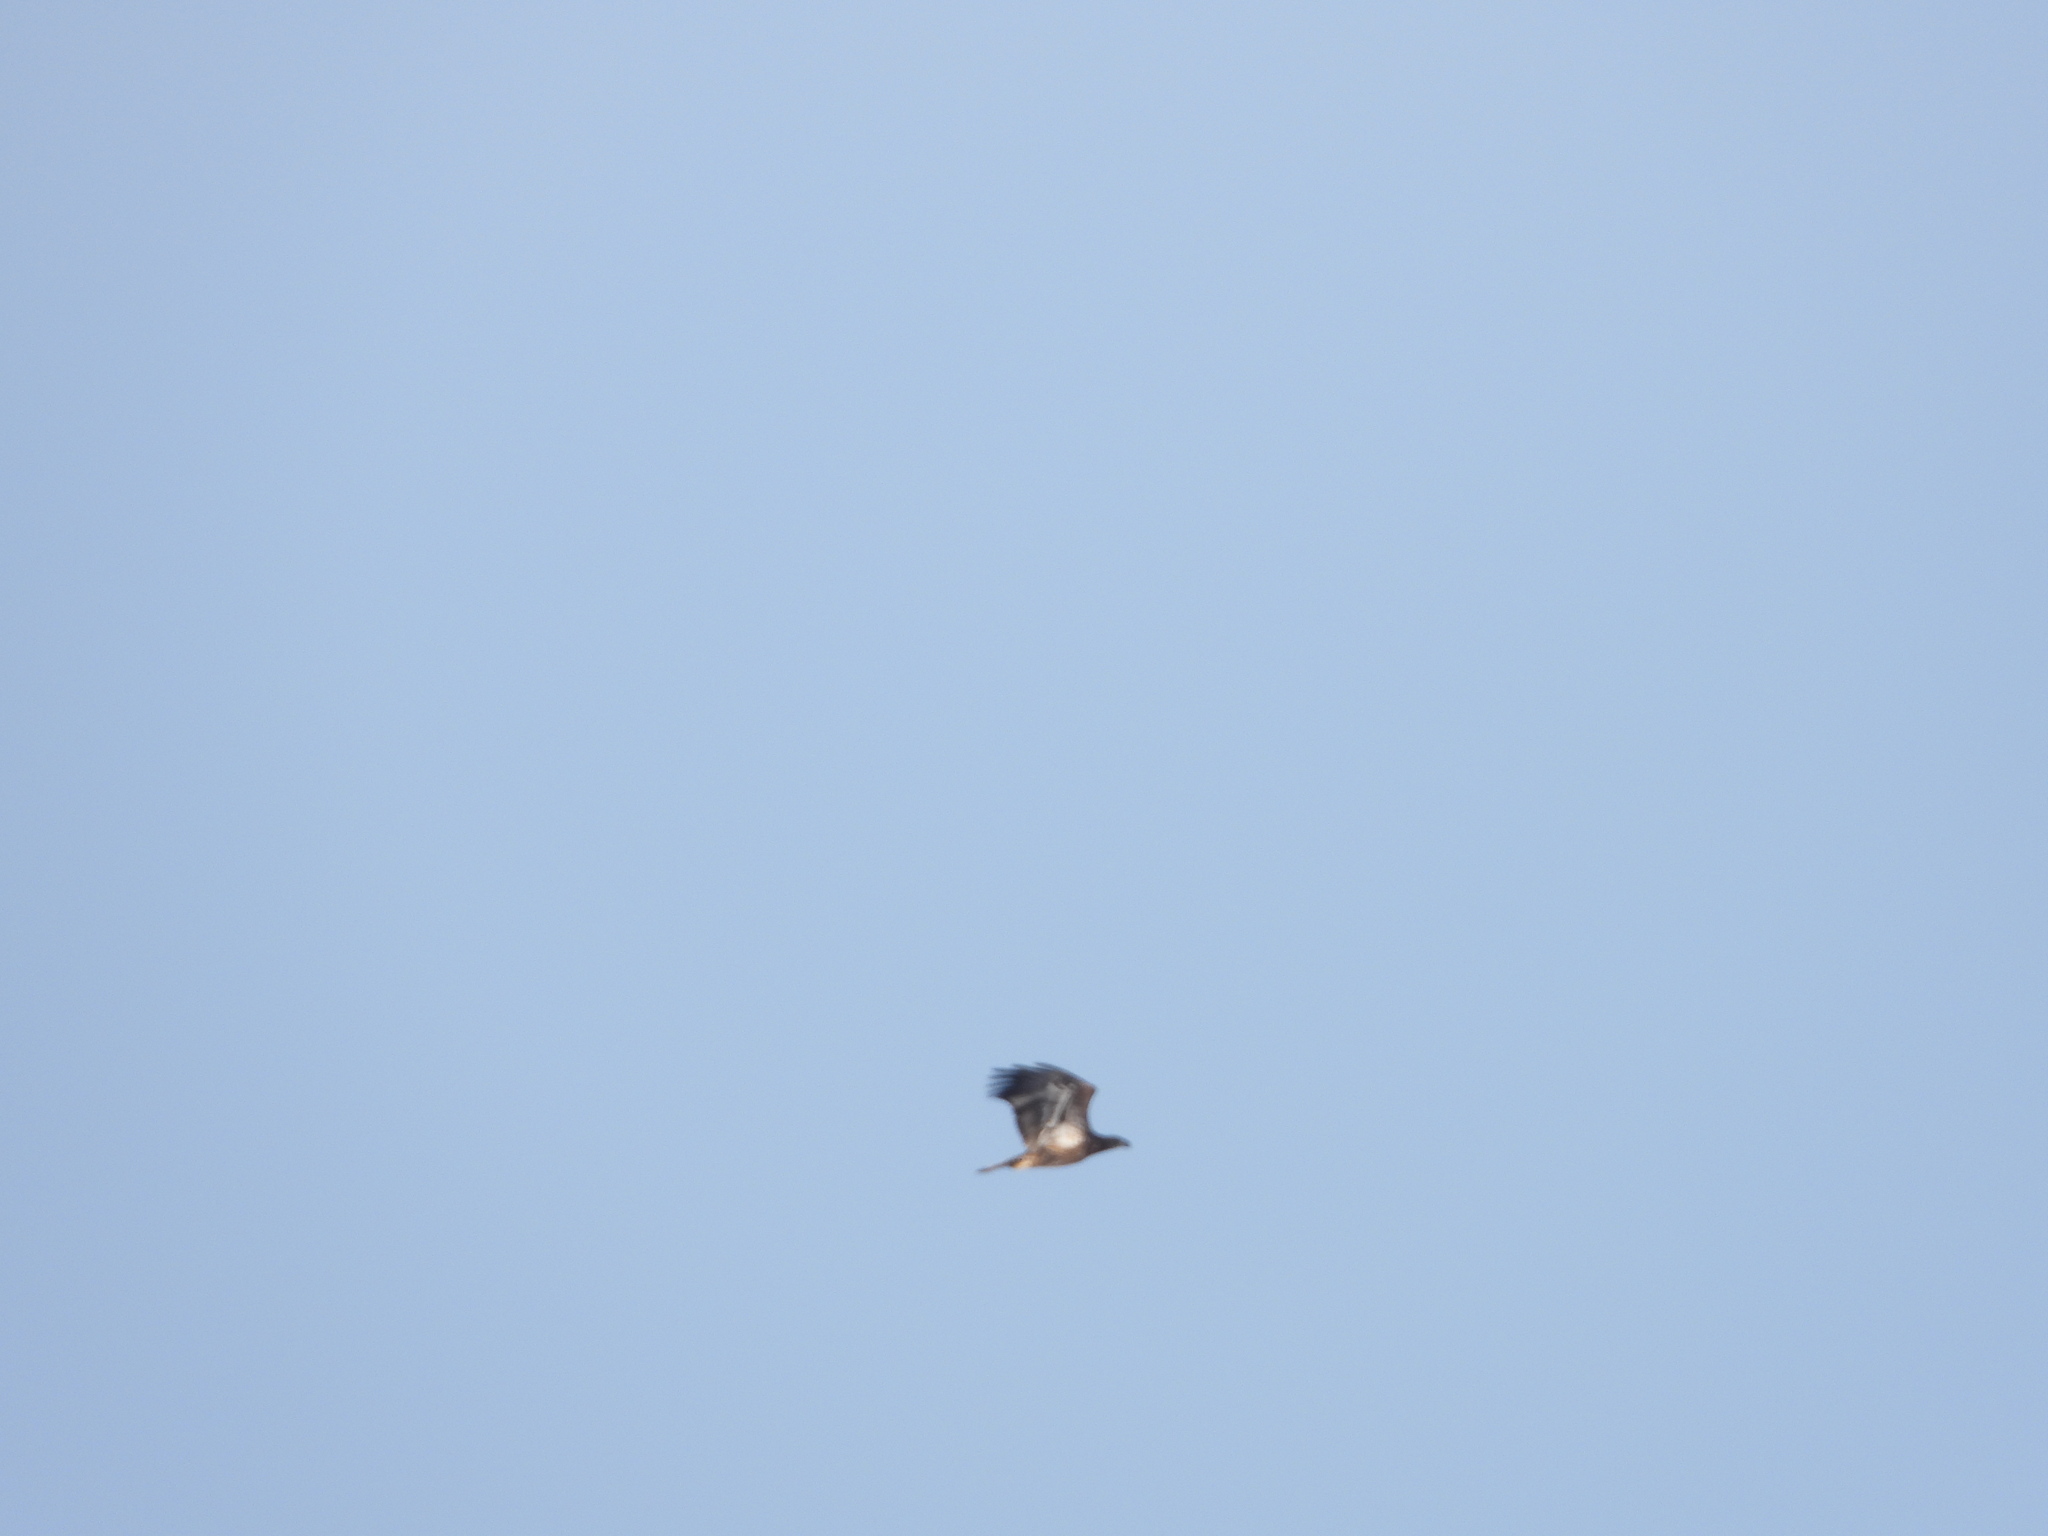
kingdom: Animalia
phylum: Chordata
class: Aves
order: Accipitriformes
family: Accipitridae
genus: Haliaeetus
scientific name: Haliaeetus leucocephalus
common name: Bald eagle
